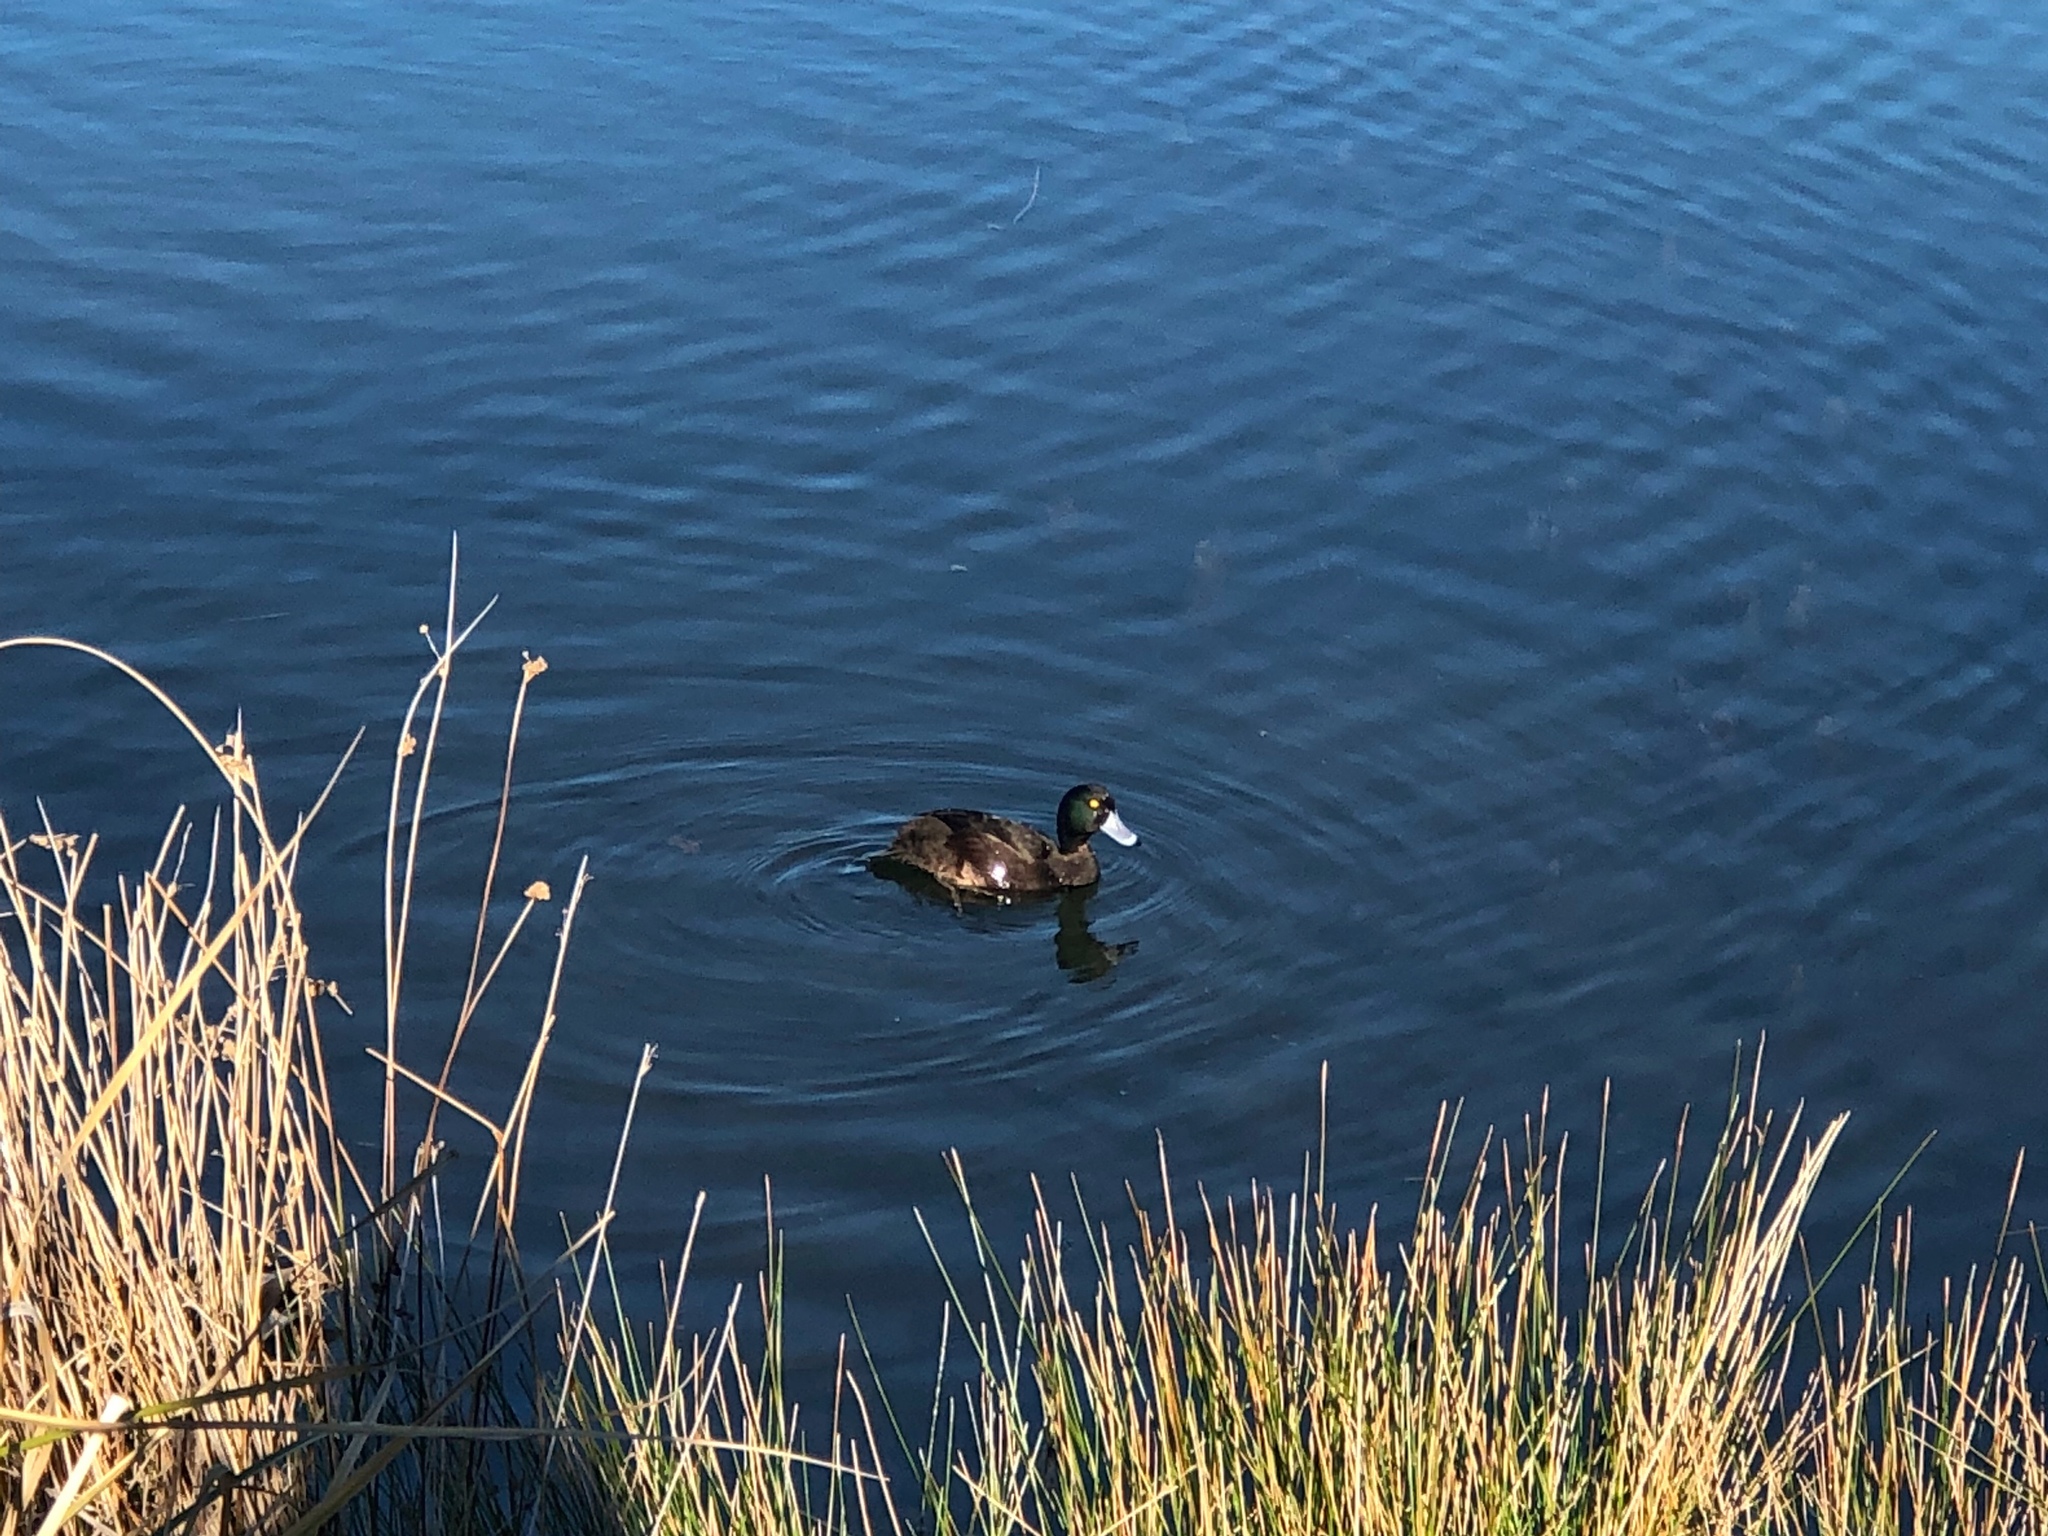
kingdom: Animalia
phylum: Chordata
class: Aves
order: Anseriformes
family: Anatidae
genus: Aythya
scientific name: Aythya novaeseelandiae
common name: New zealand scaup
